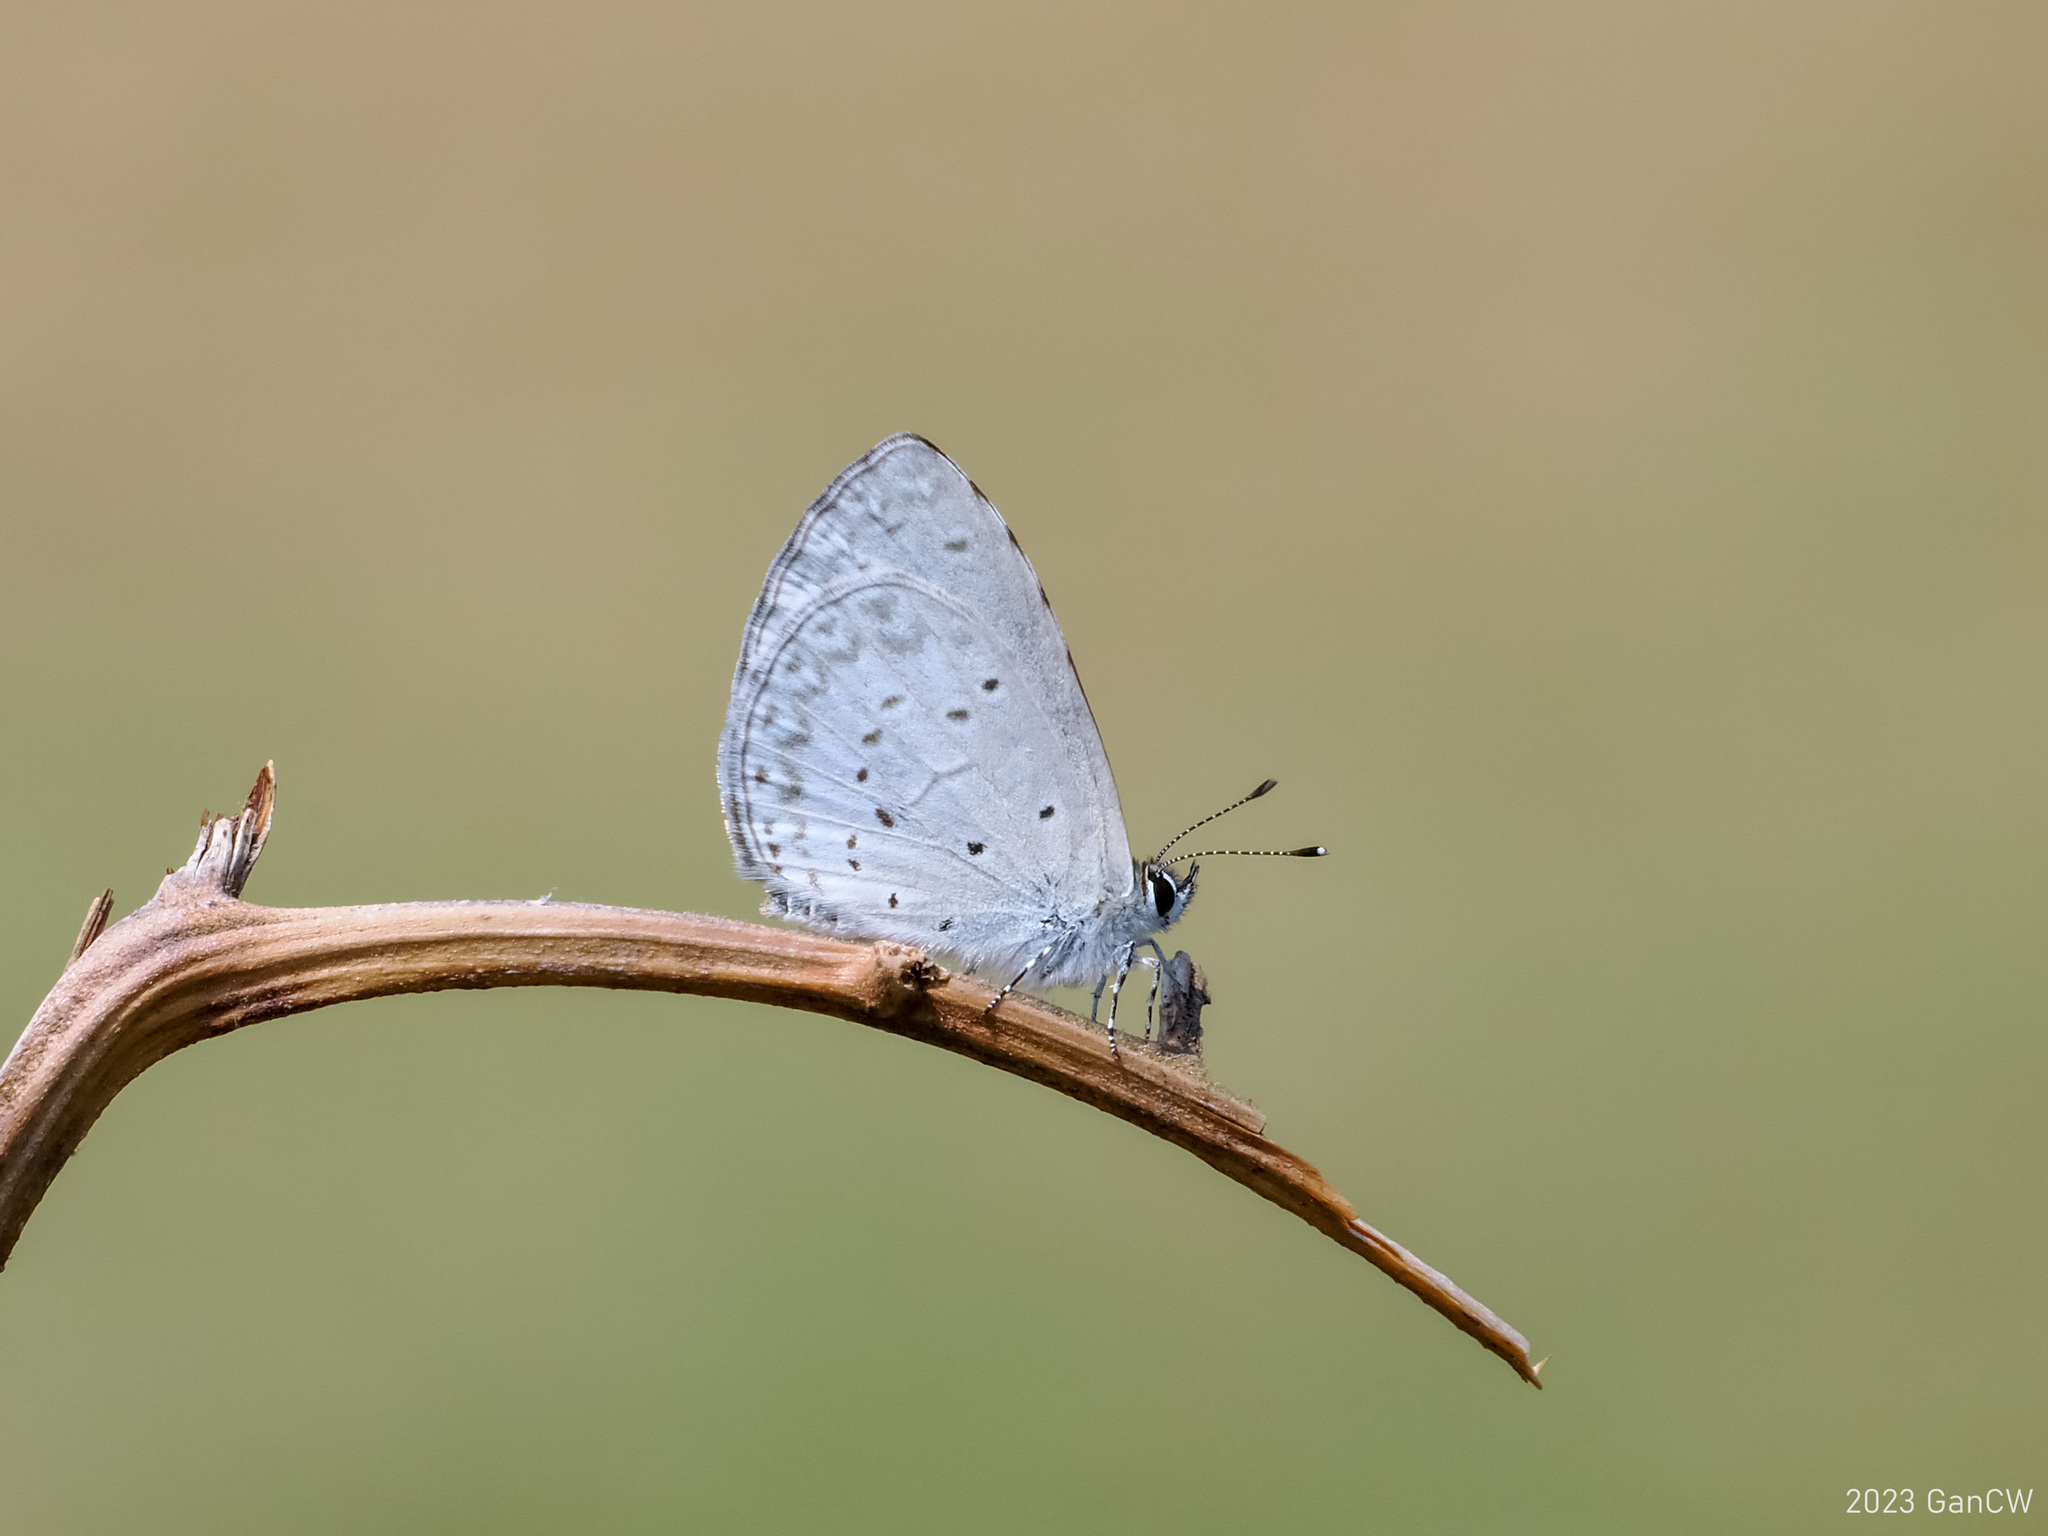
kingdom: Animalia
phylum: Arthropoda
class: Insecta
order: Lepidoptera
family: Lycaenidae
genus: Celastrina
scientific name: Celastrina argiolus
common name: Holly blue
